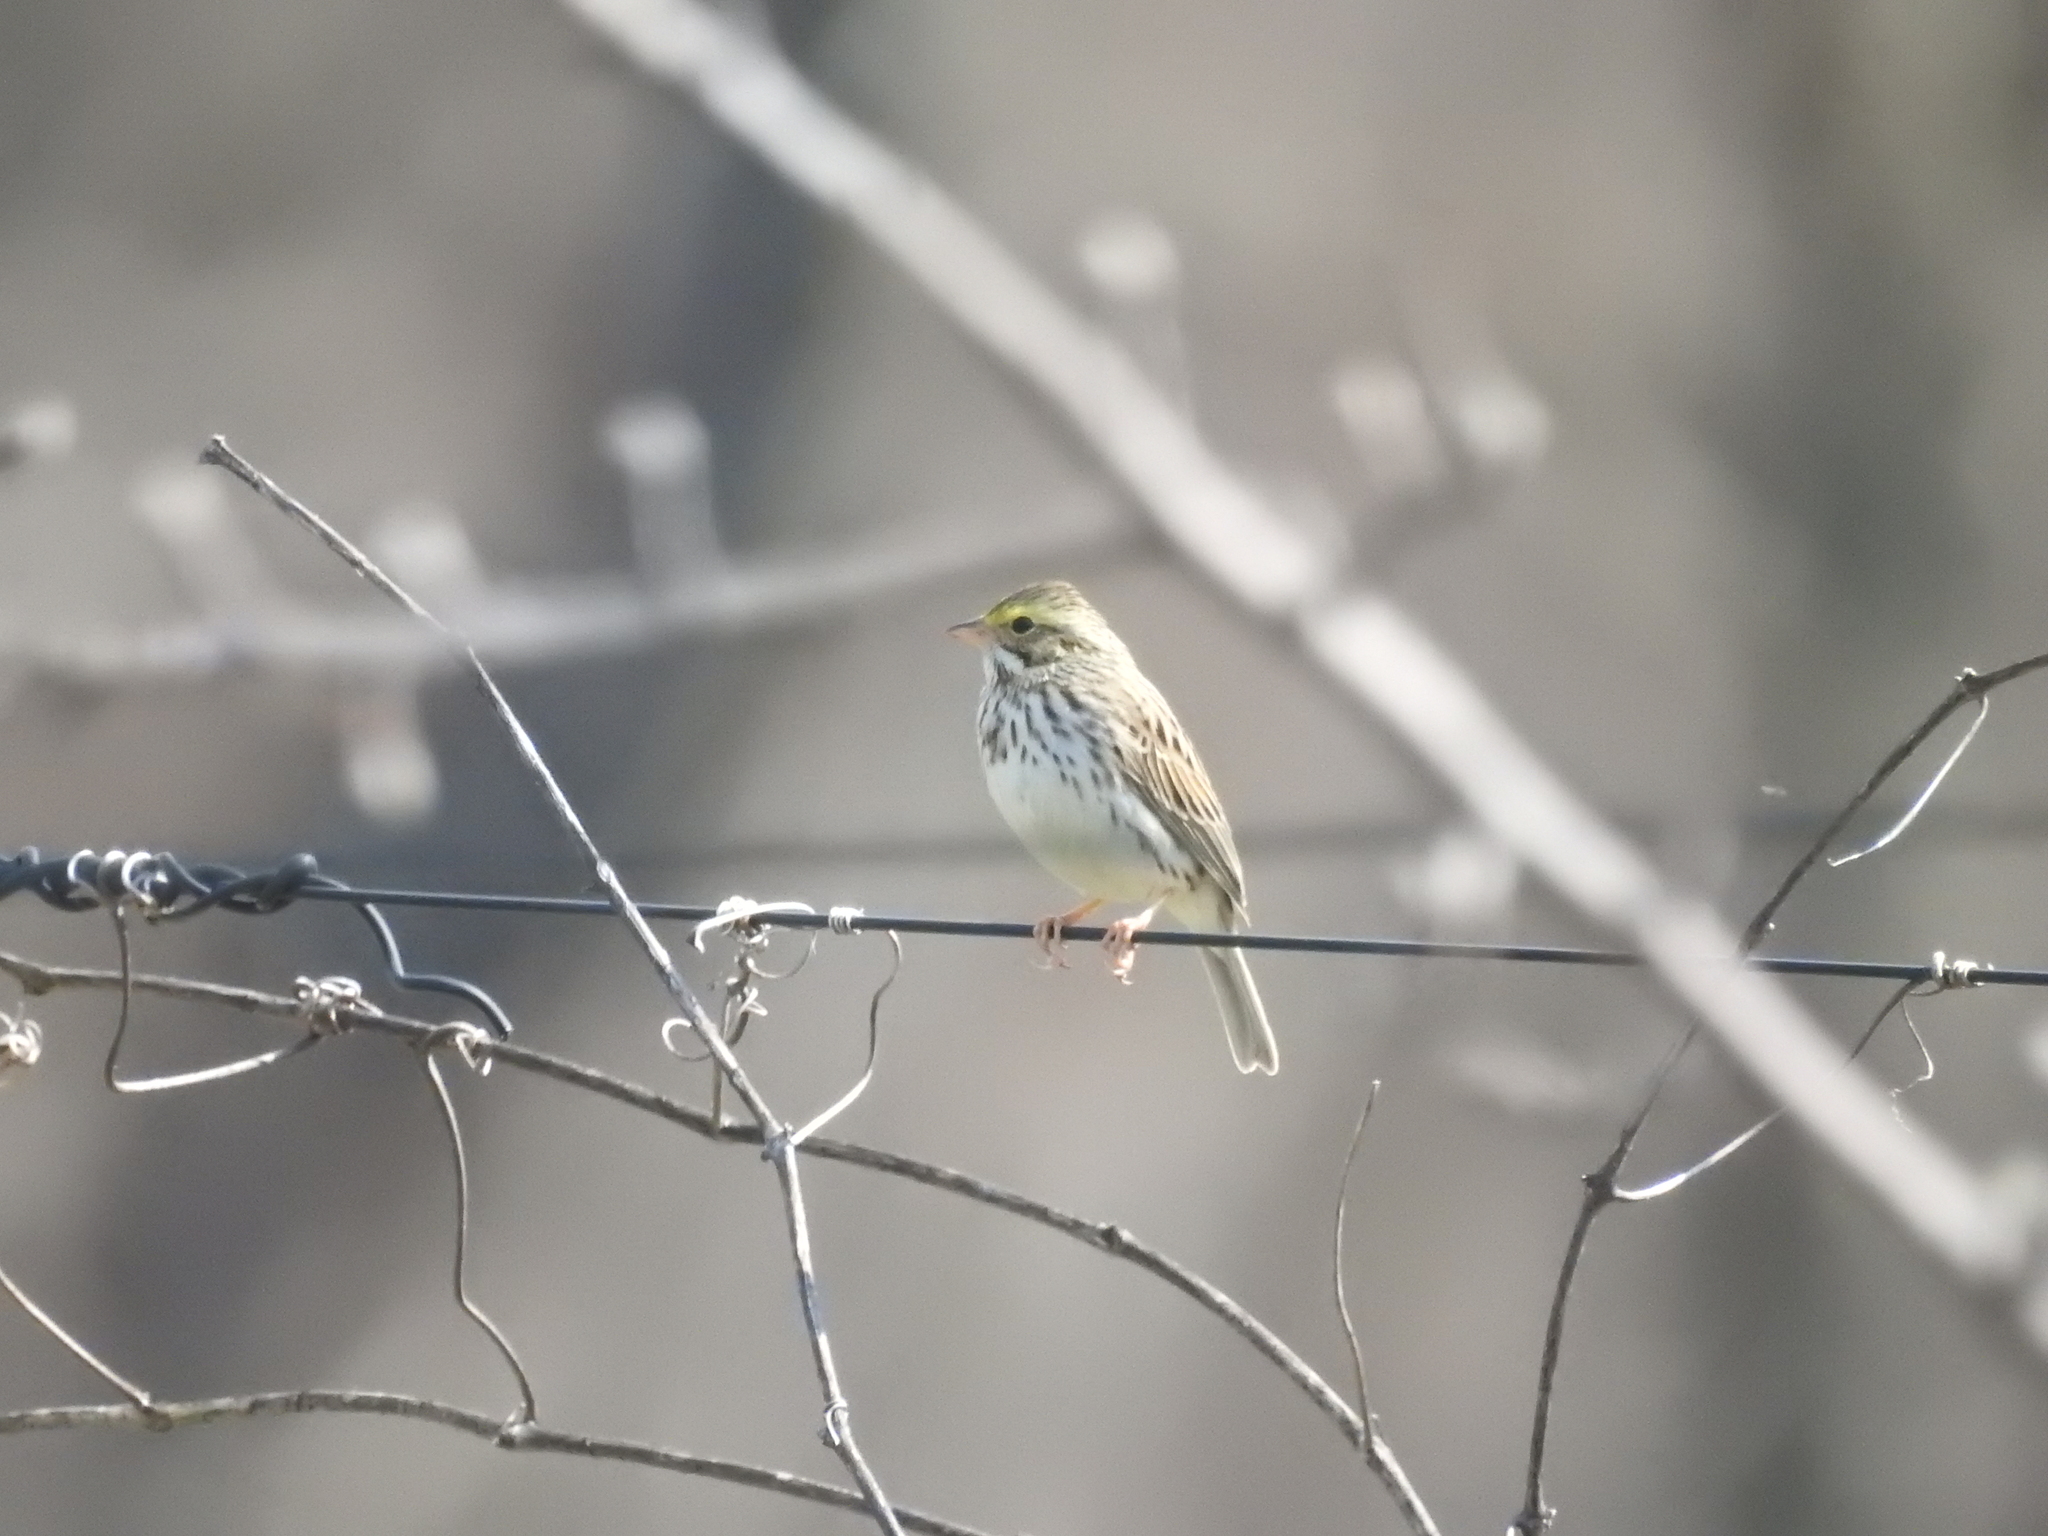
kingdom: Animalia
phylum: Chordata
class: Aves
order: Passeriformes
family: Passerellidae
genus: Passerculus
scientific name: Passerculus sandwichensis
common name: Savannah sparrow
